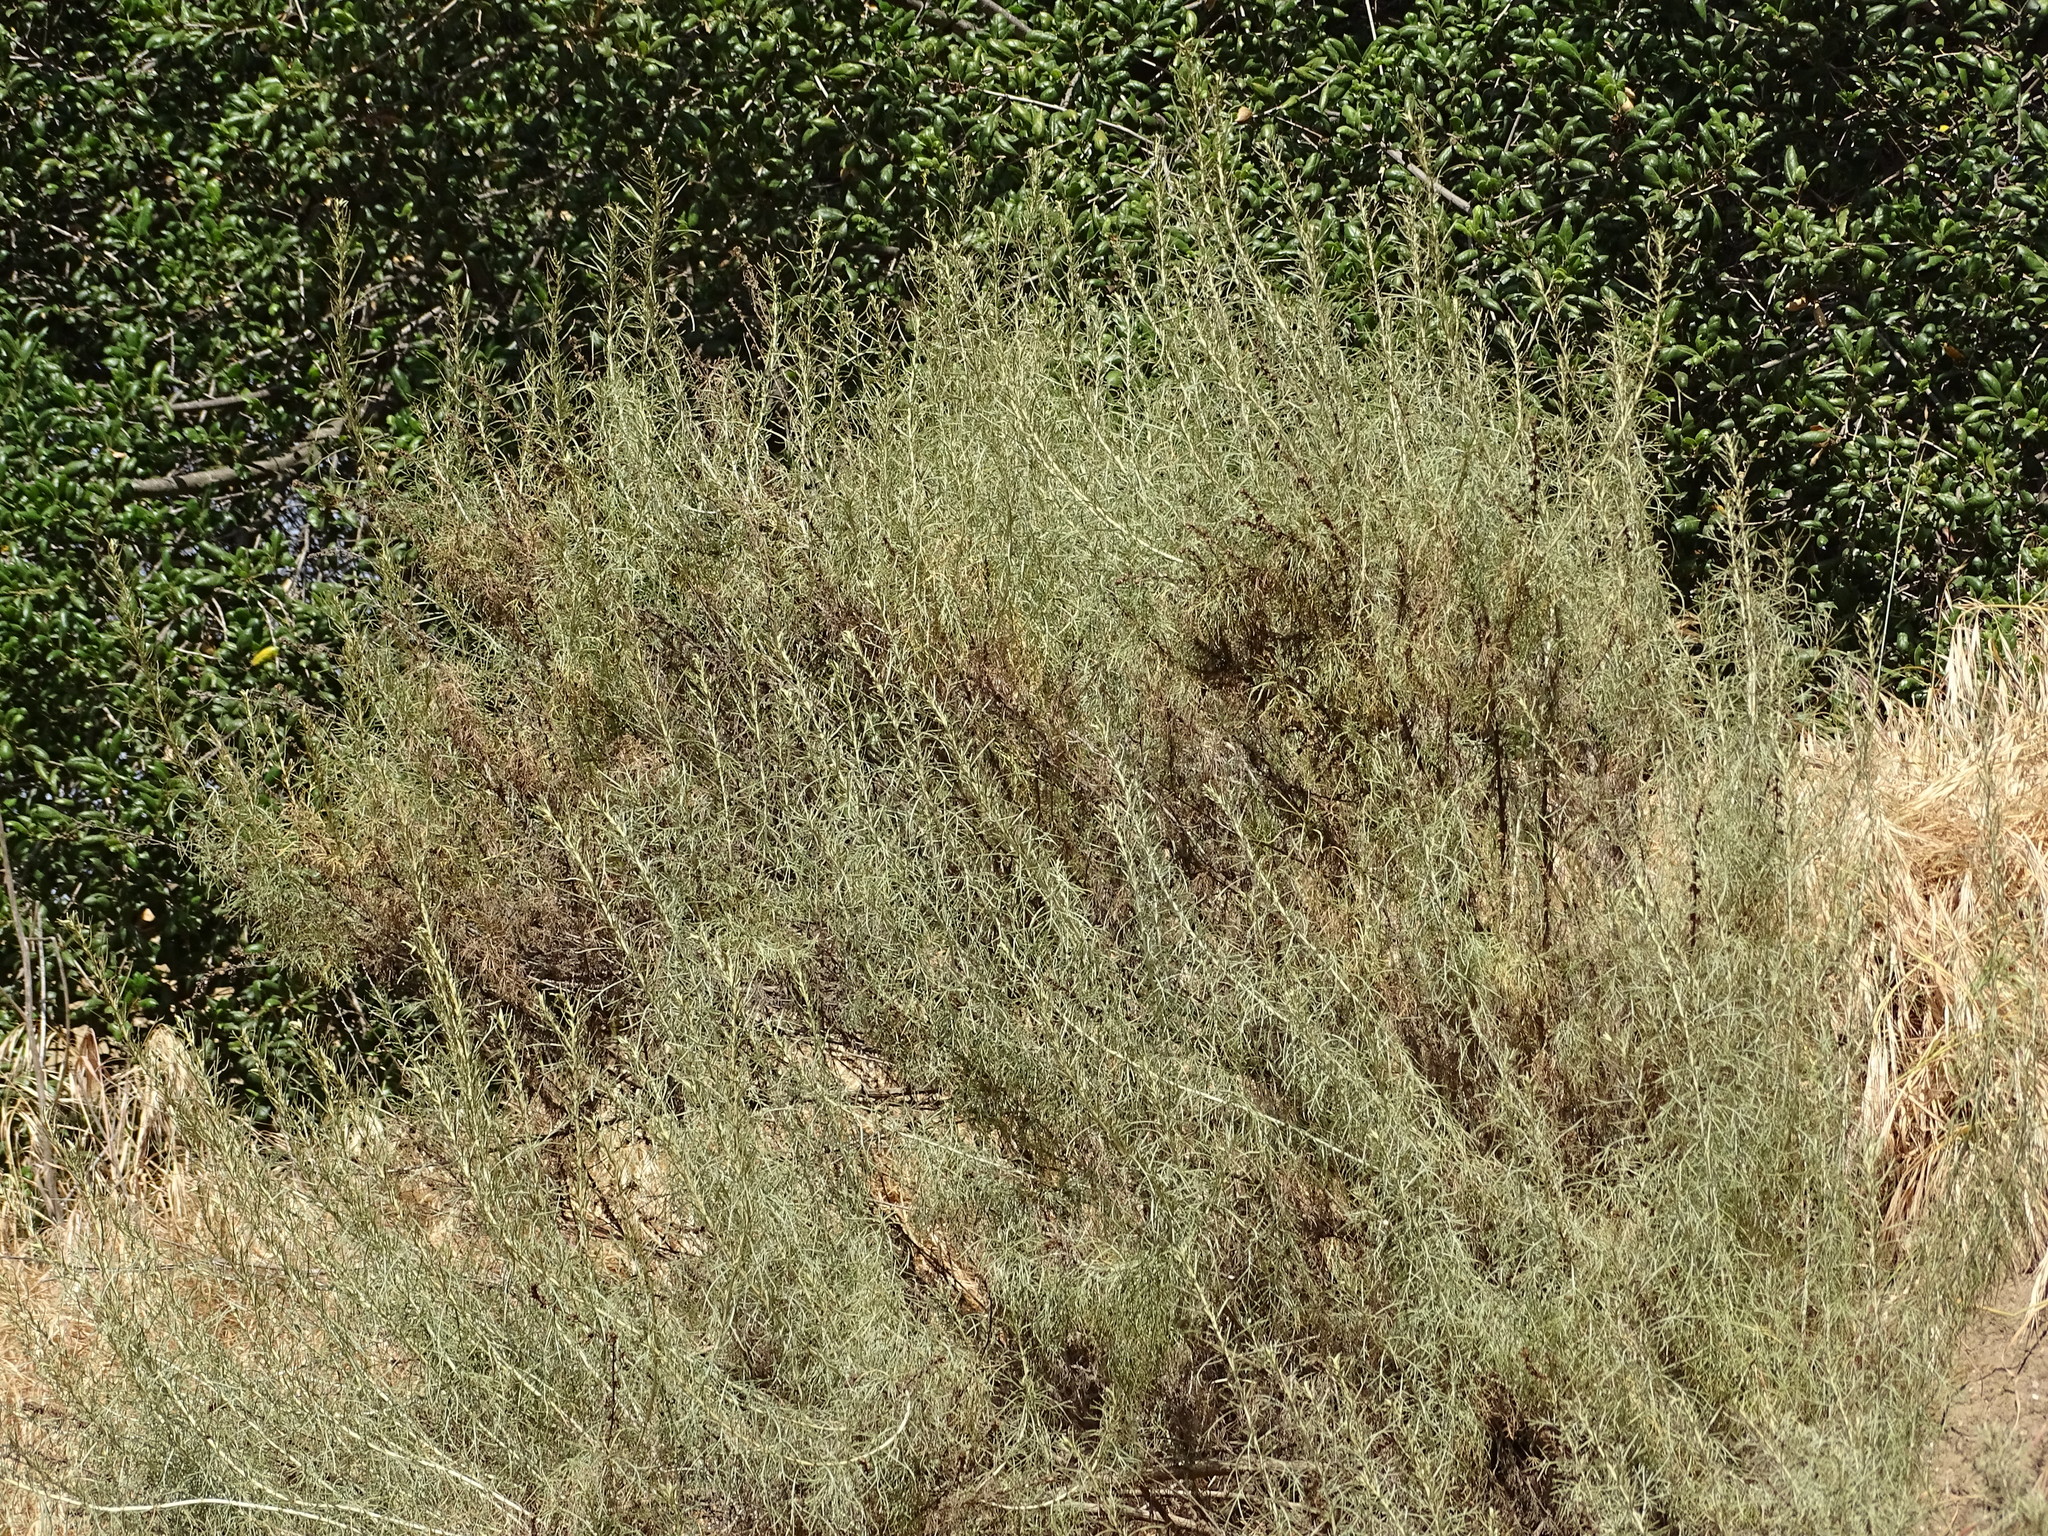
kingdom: Plantae
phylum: Tracheophyta
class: Magnoliopsida
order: Asterales
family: Asteraceae
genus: Artemisia
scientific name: Artemisia californica
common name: California sagebrush
